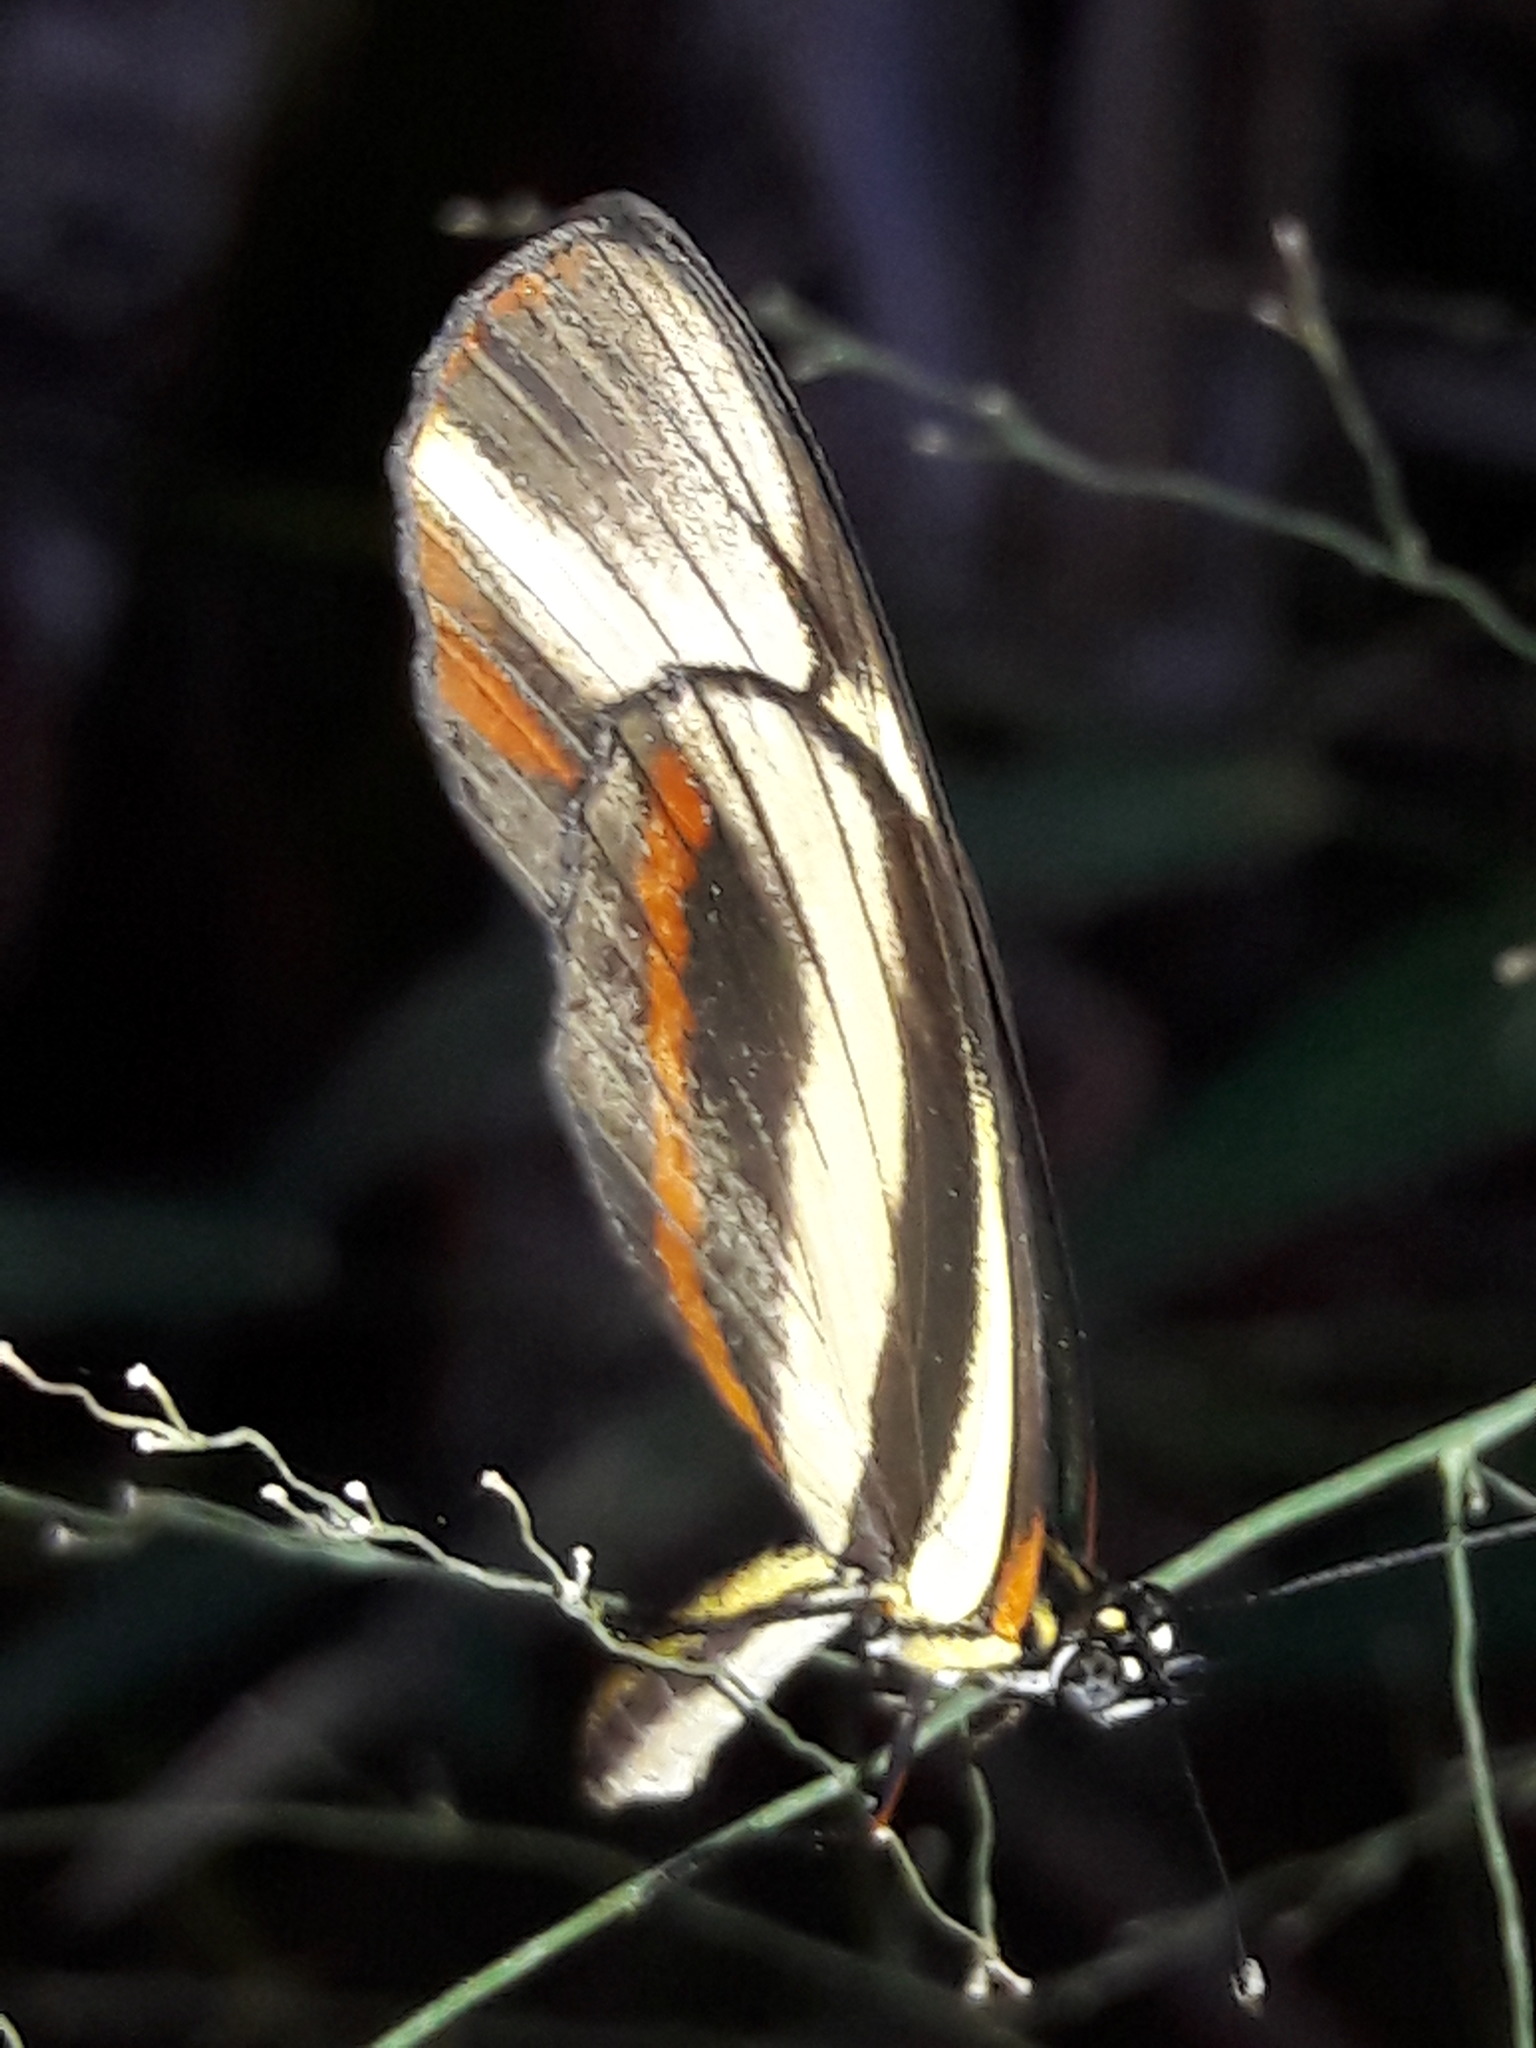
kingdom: Animalia
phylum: Arthropoda
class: Insecta
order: Lepidoptera
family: Nymphalidae
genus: Eresia
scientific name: Eresia lansdorfi
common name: Lansdorf's crescent
